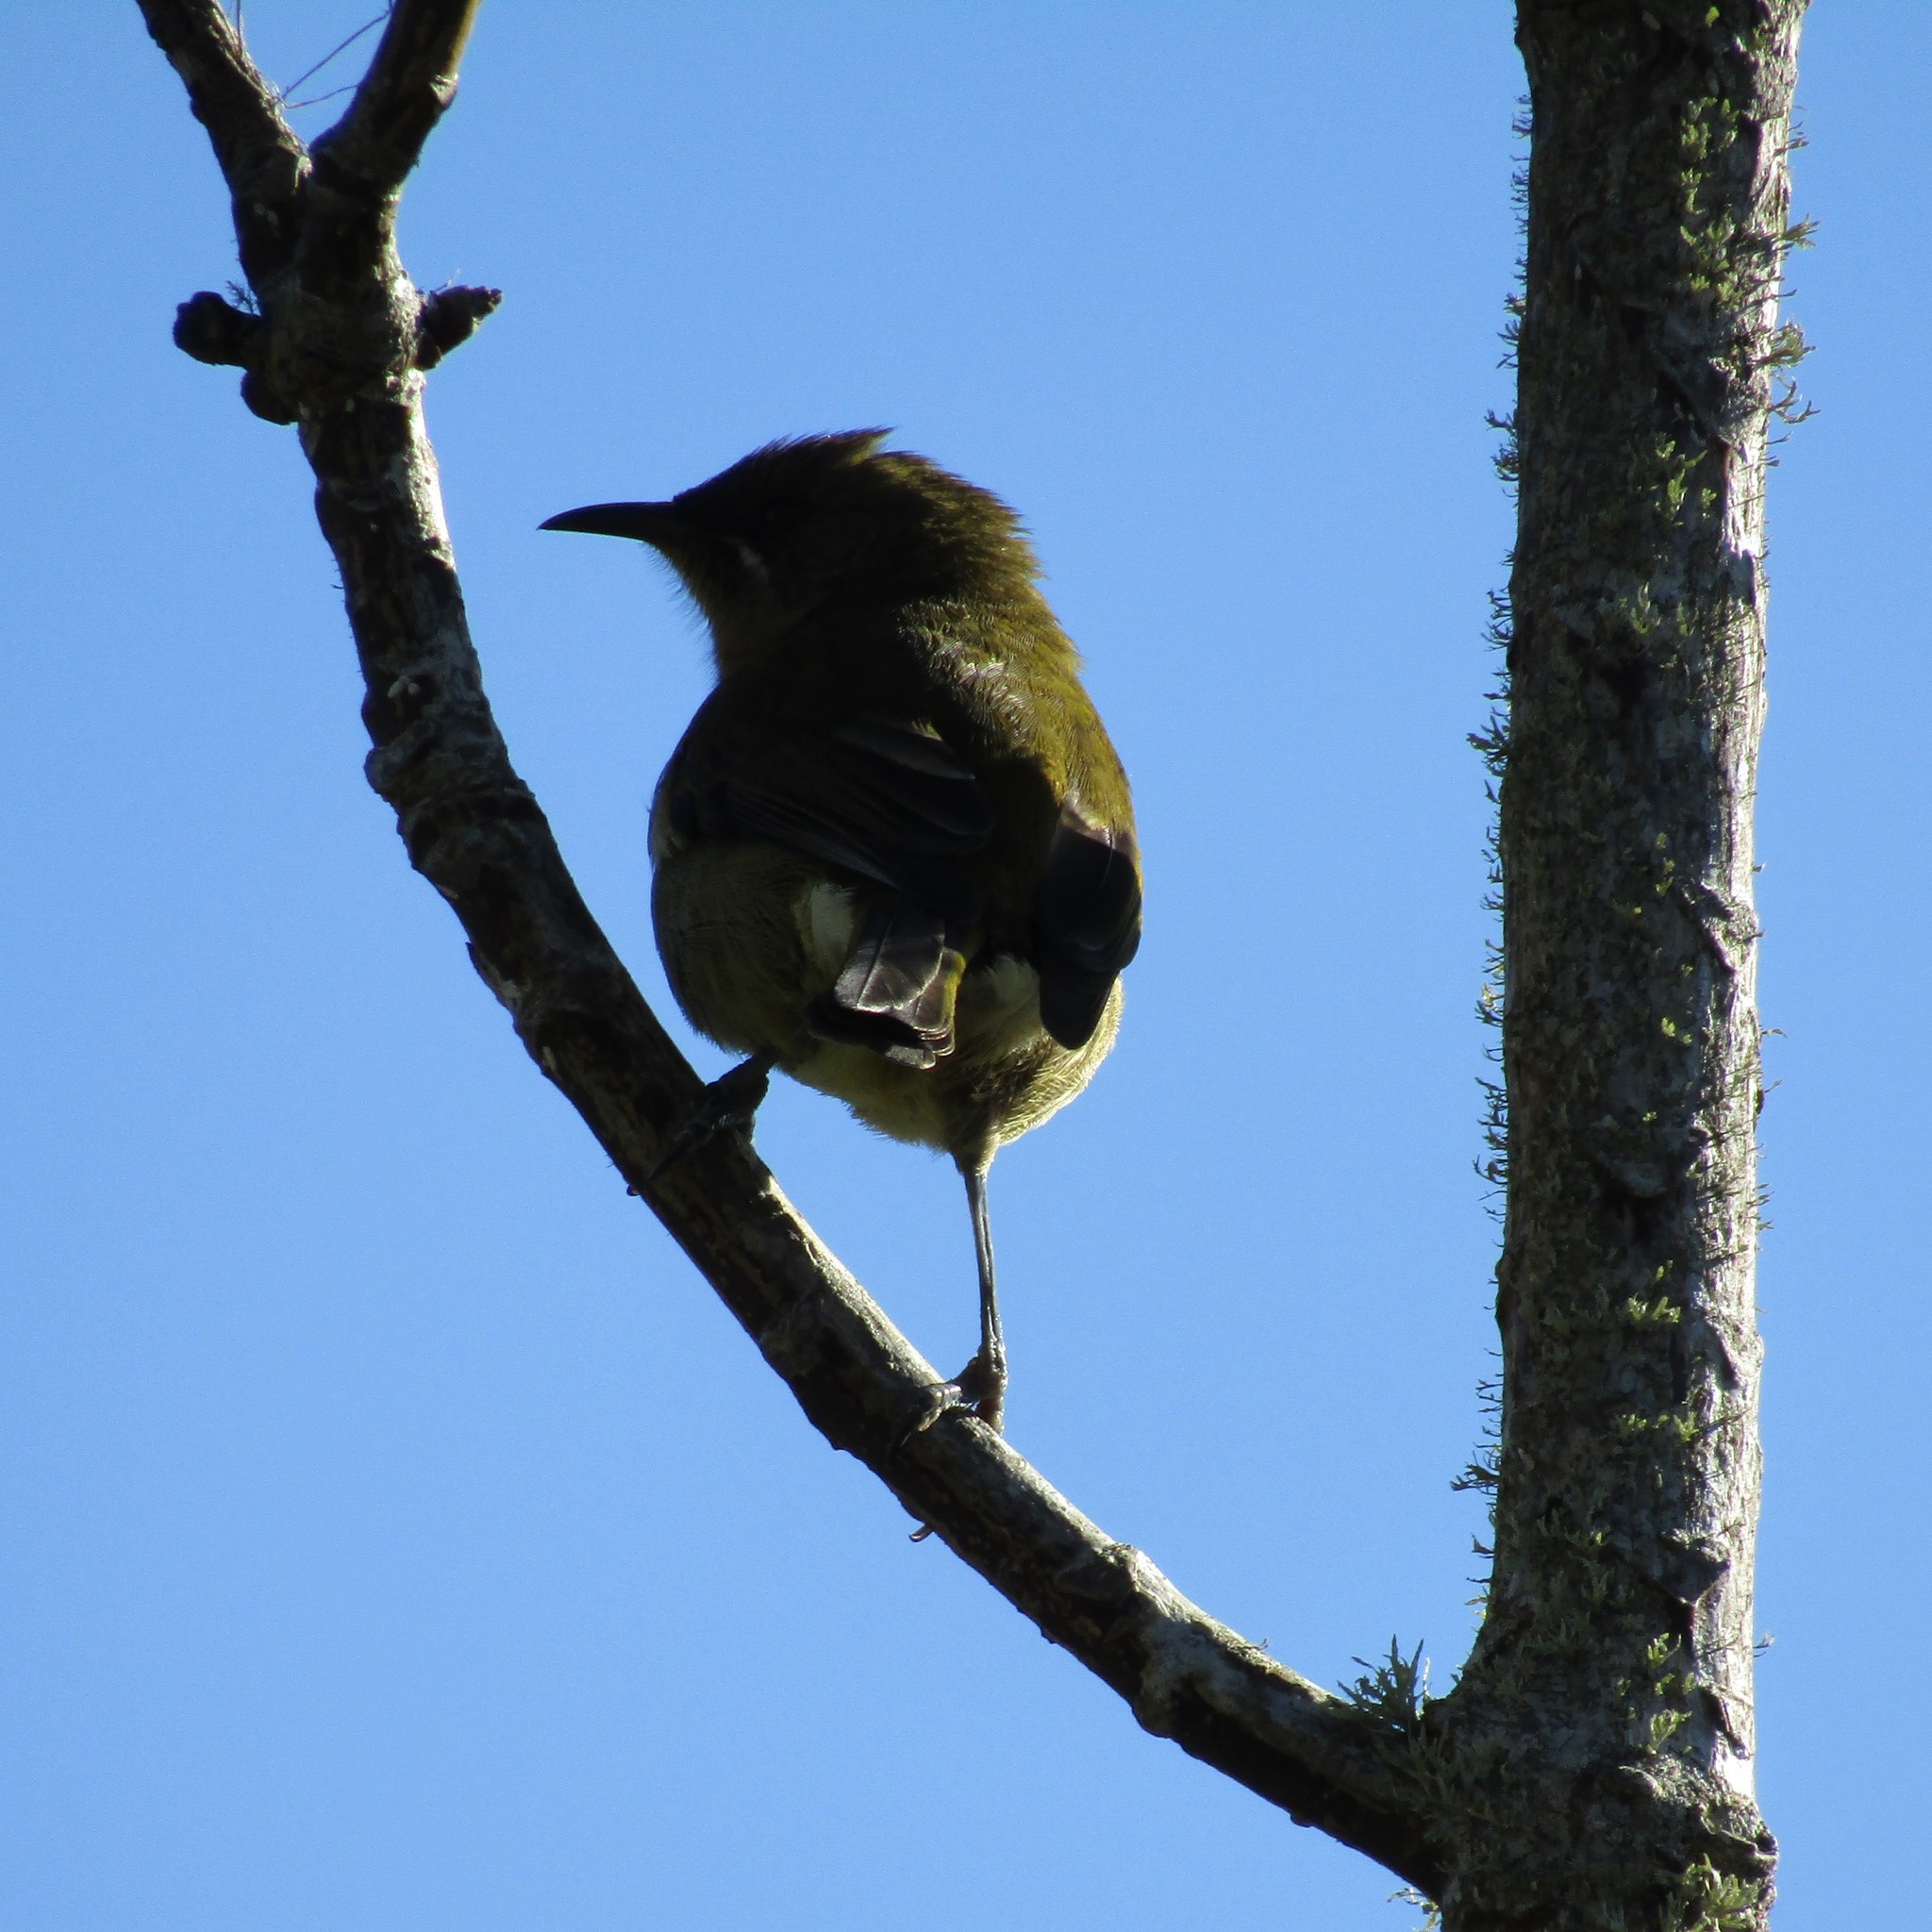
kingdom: Animalia
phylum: Chordata
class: Aves
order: Passeriformes
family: Meliphagidae
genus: Anthornis
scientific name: Anthornis melanura
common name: New zealand bellbird
